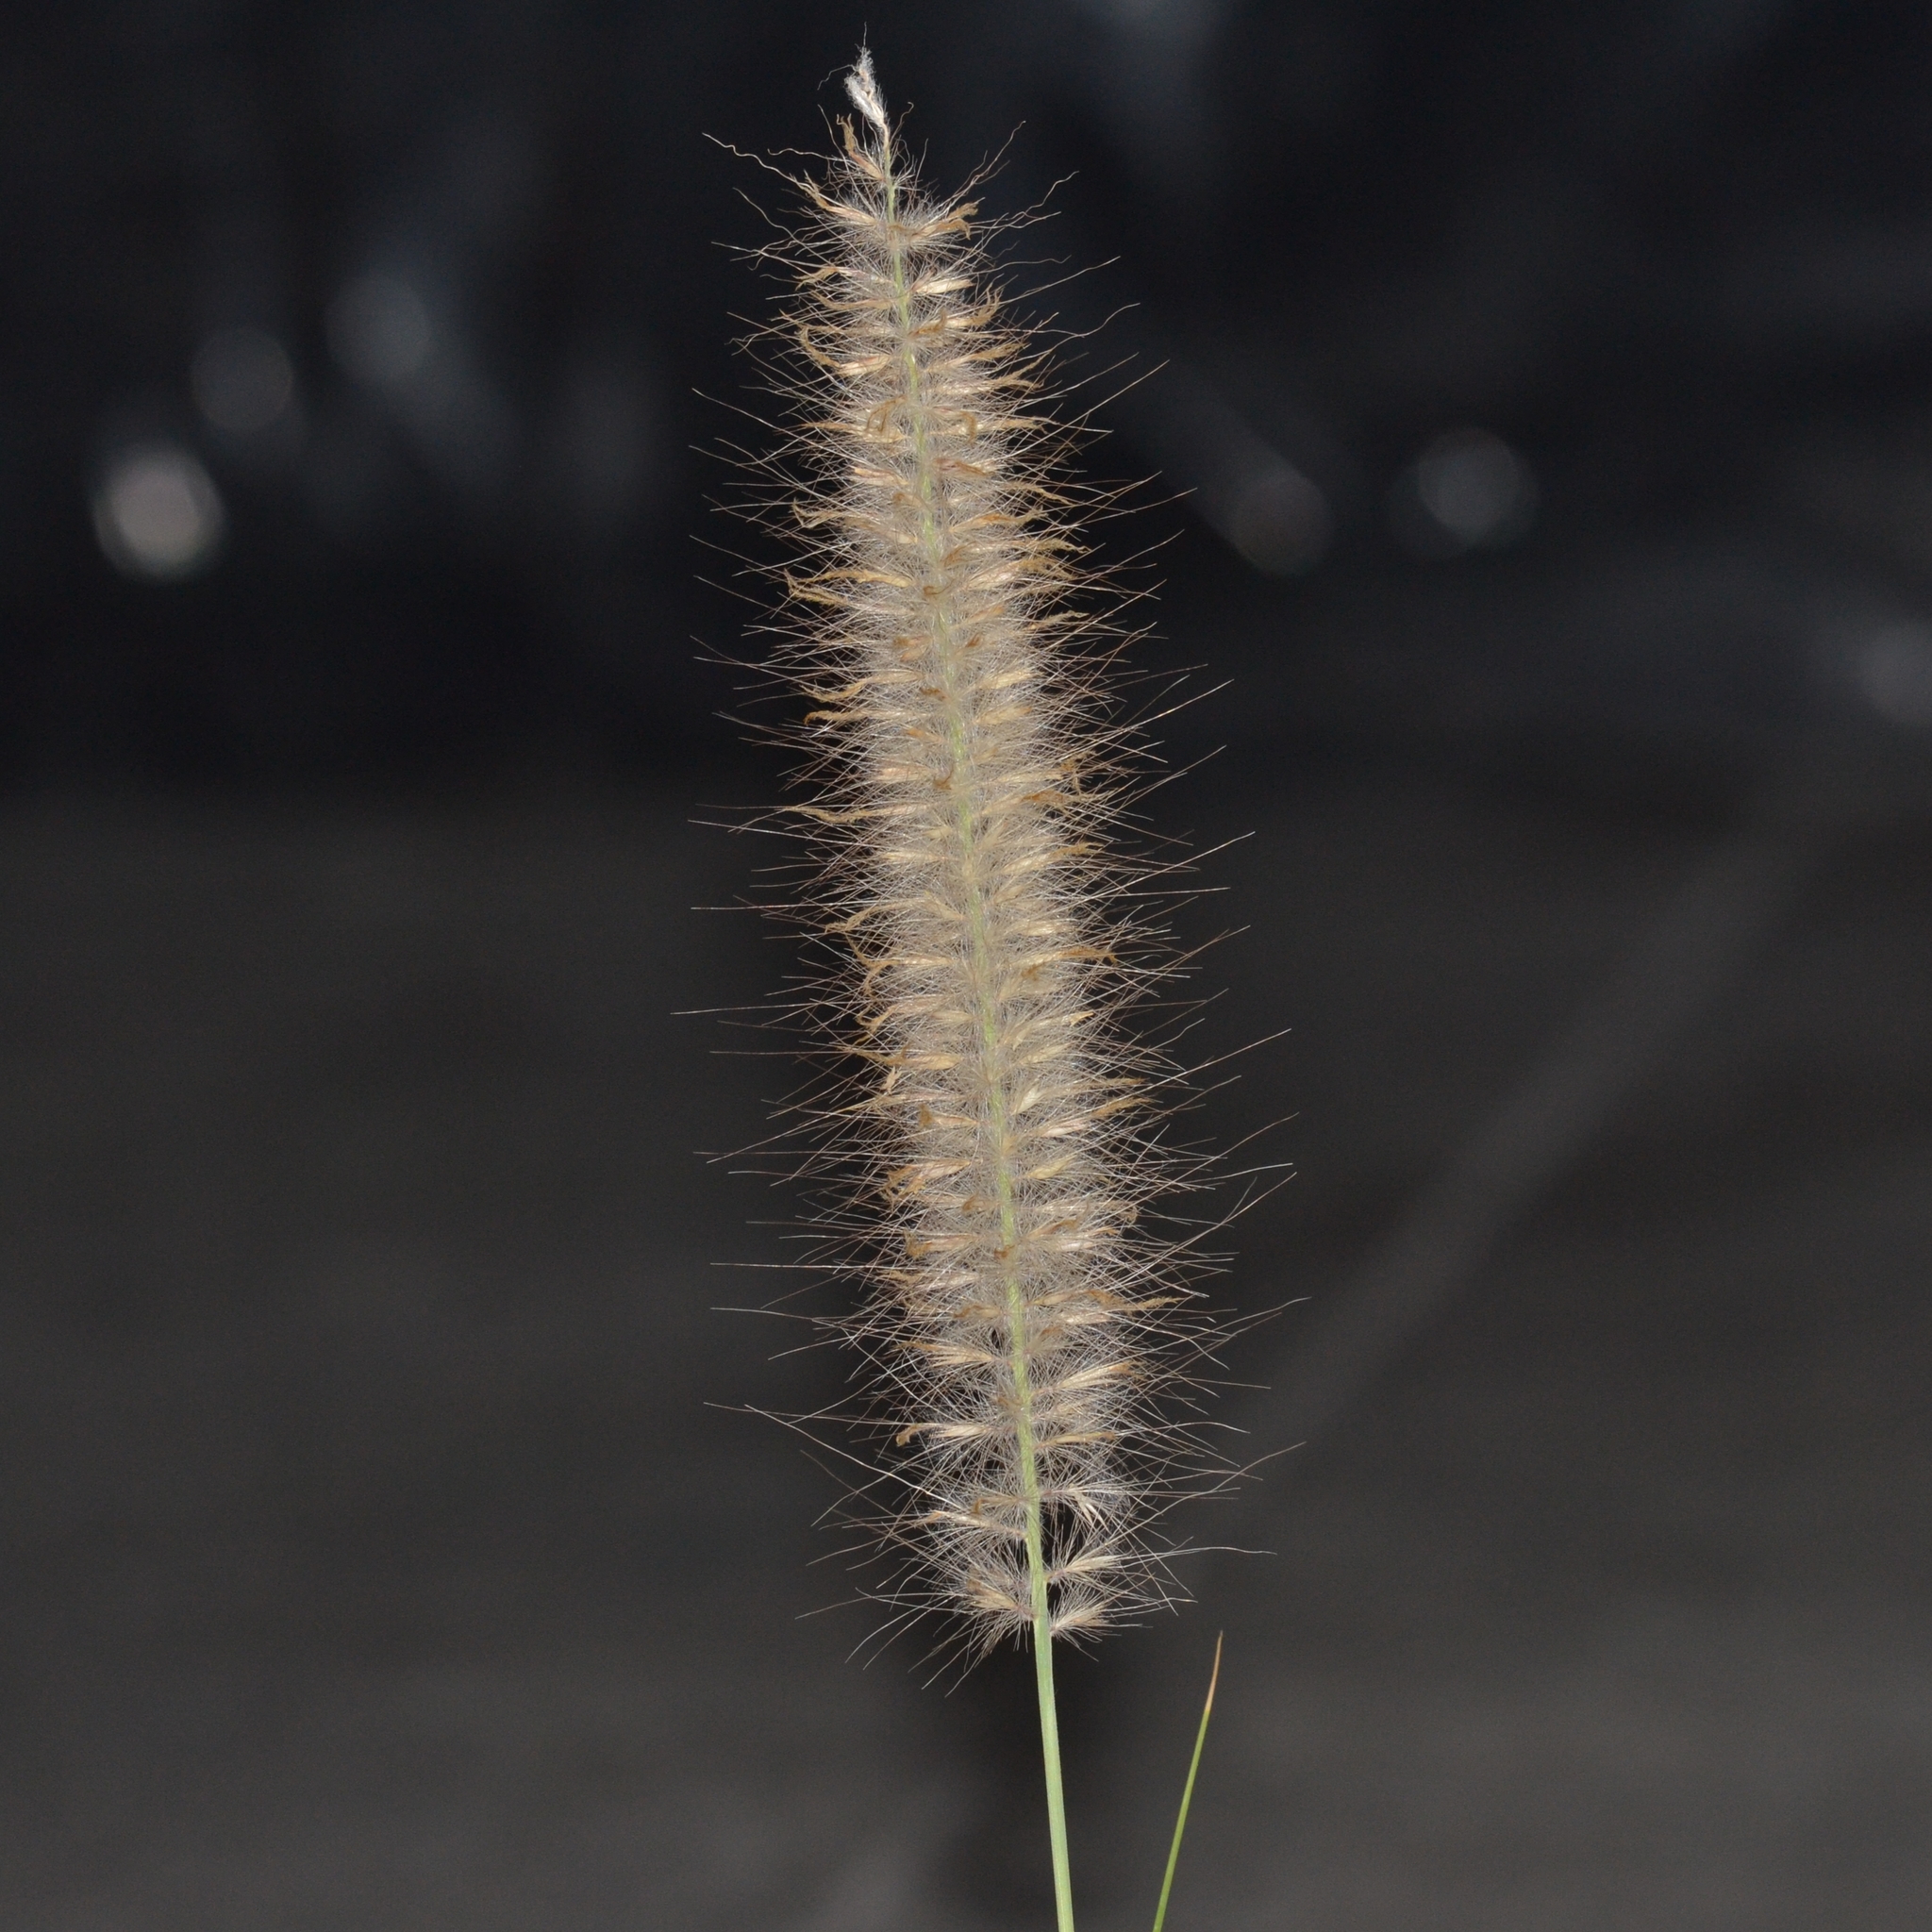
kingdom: Plantae
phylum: Tracheophyta
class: Liliopsida
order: Poales
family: Poaceae
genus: Cenchrus
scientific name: Cenchrus setaceus
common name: Crimson fountaingrass
